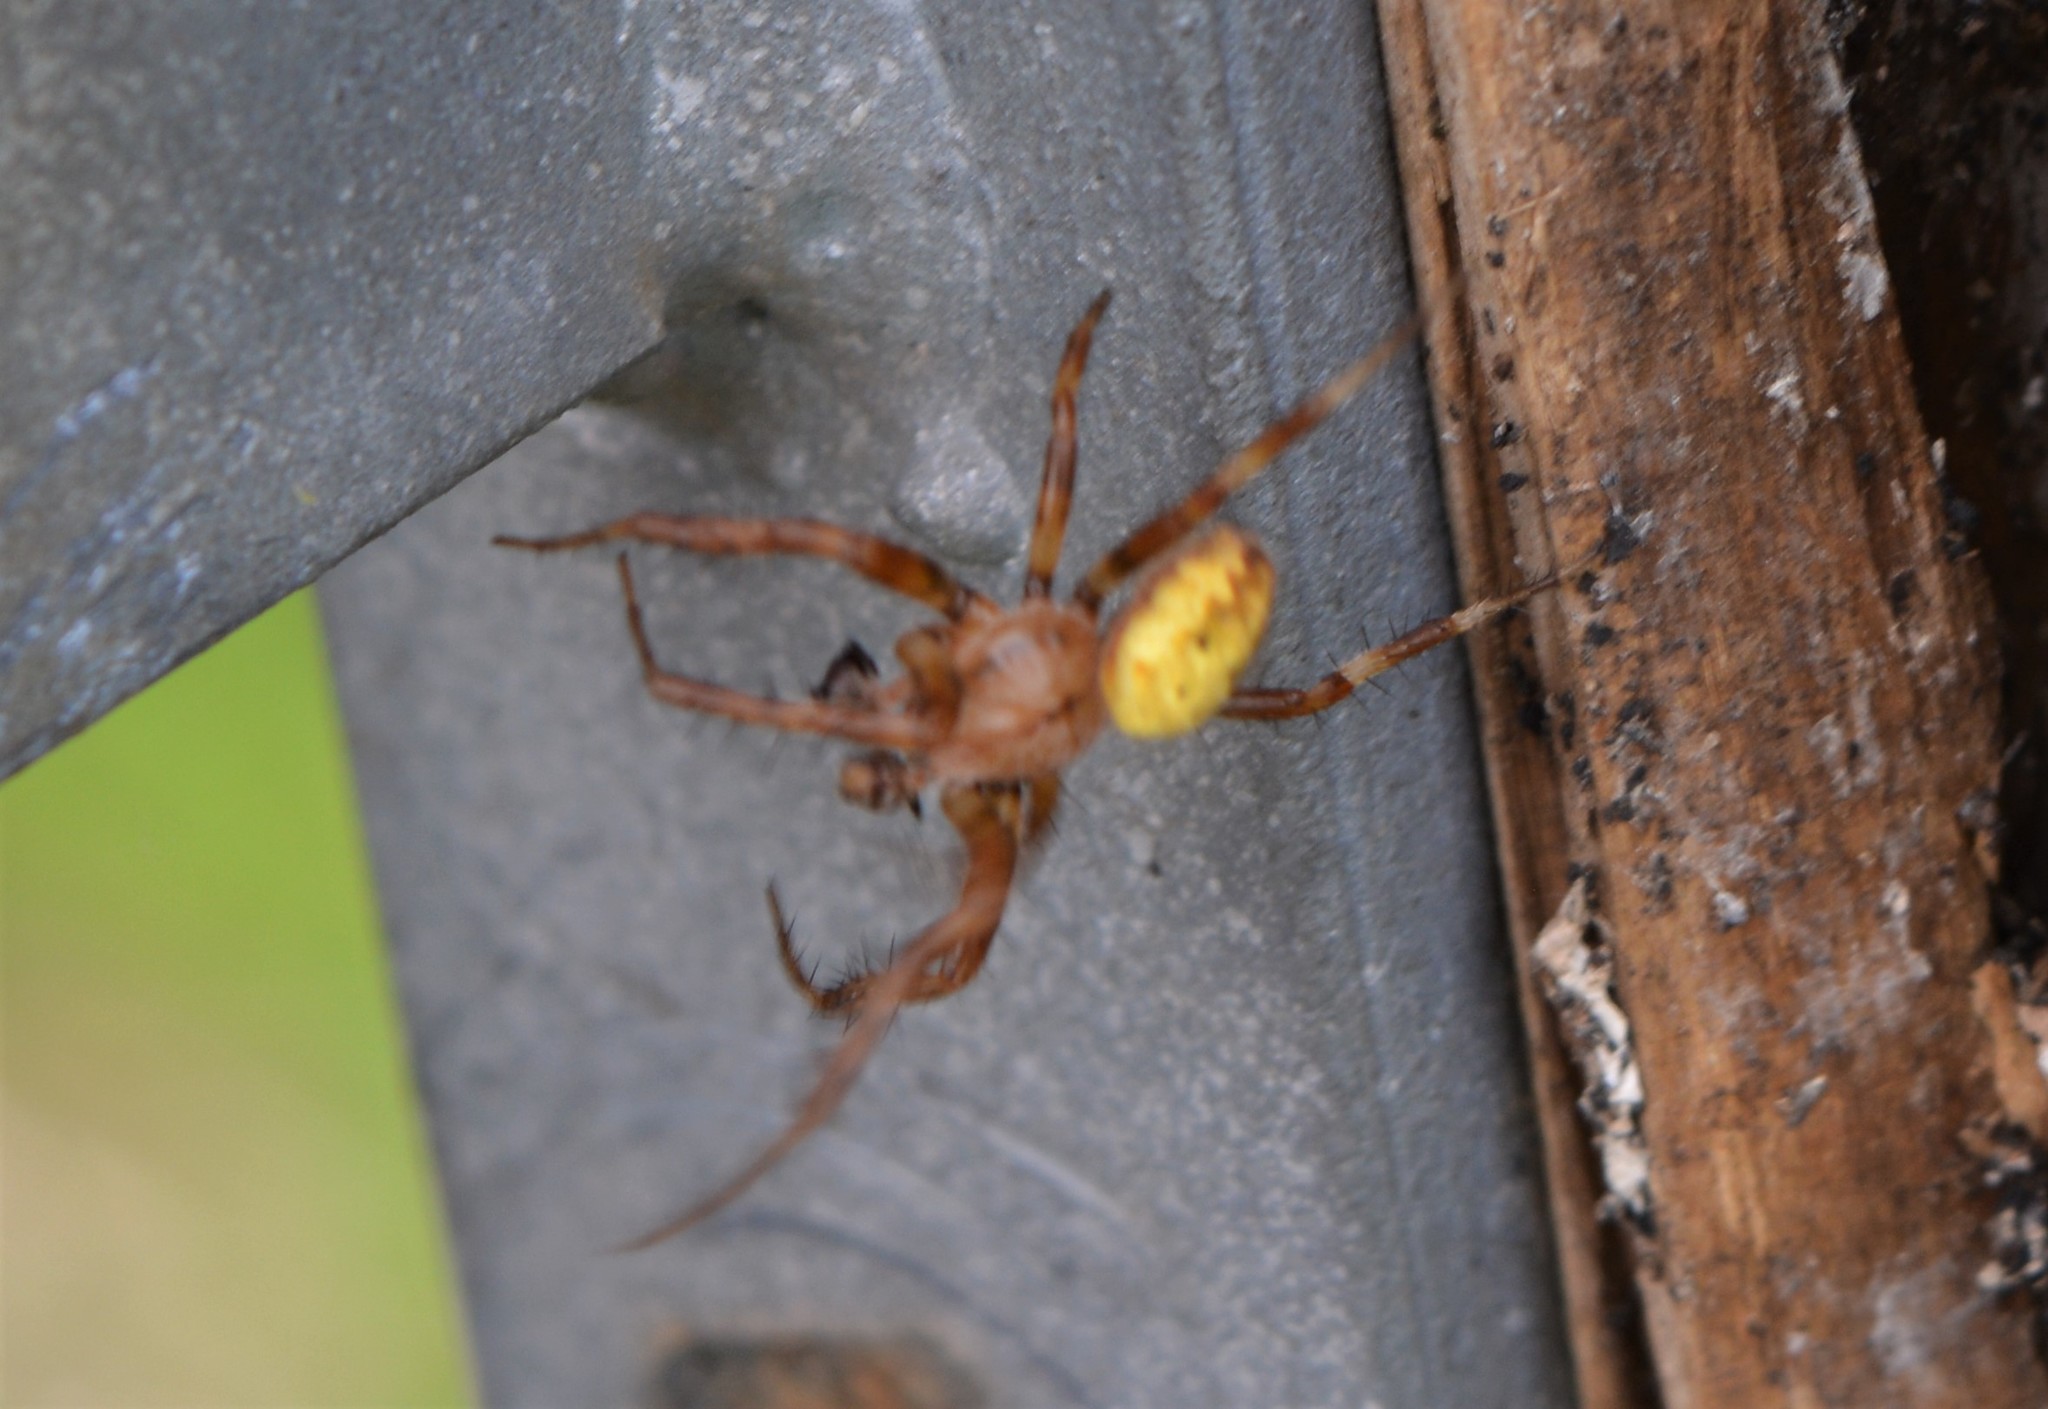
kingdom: Animalia
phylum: Arthropoda
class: Arachnida
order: Araneae
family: Araneidae
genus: Araneus
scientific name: Araneus quadratus
